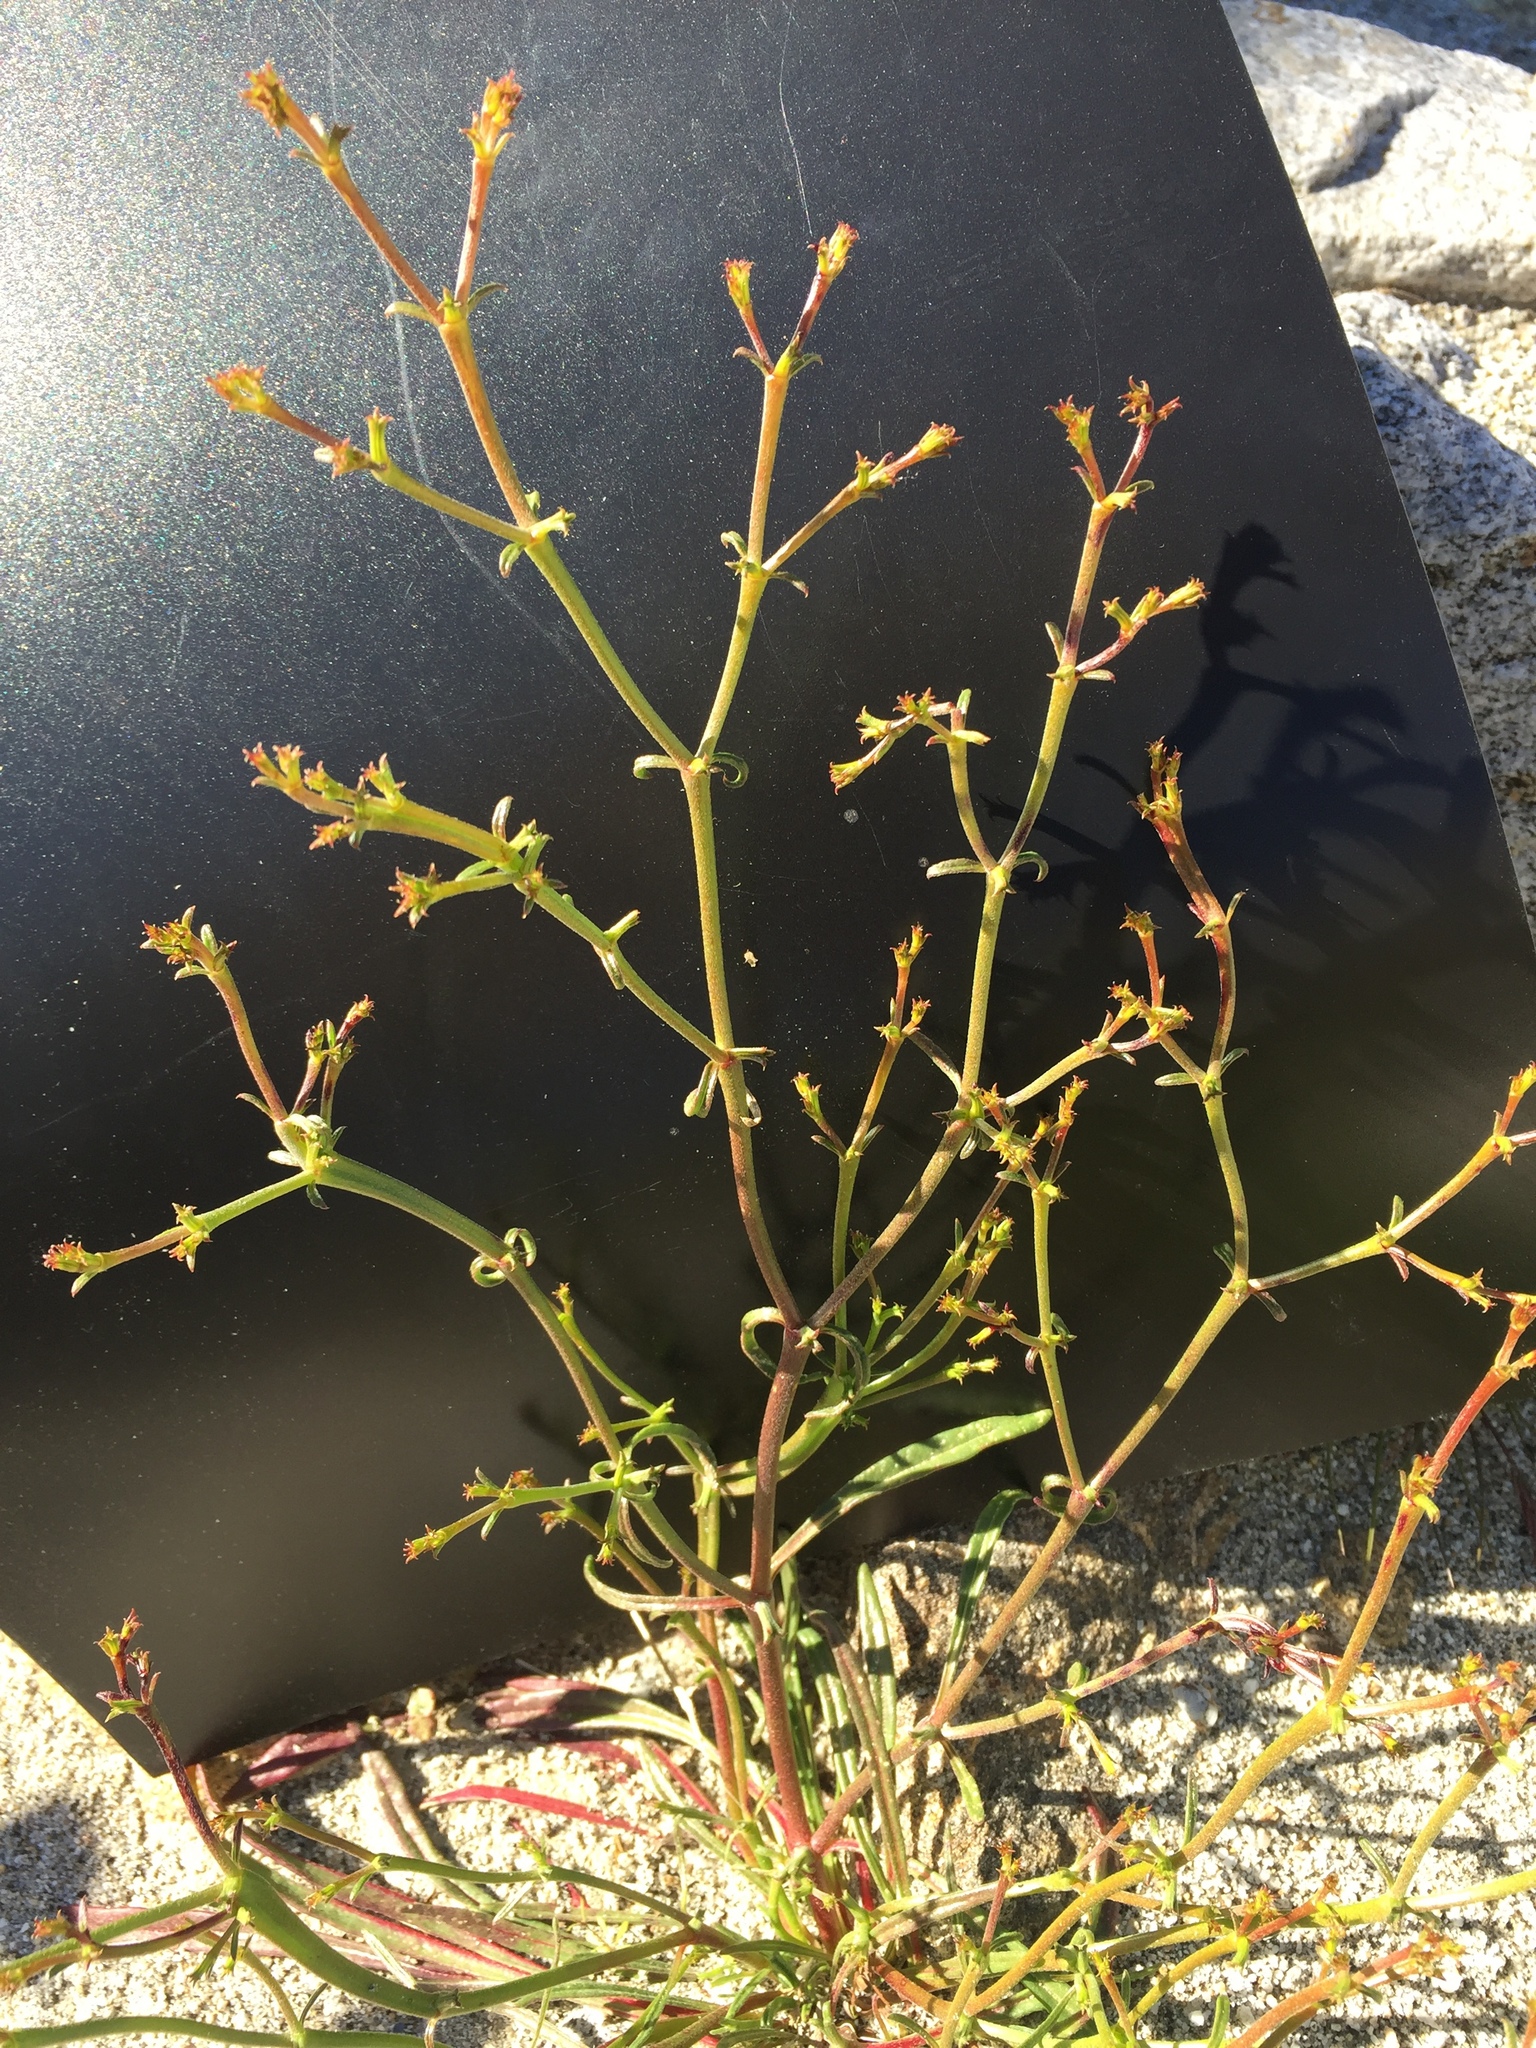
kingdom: Plantae
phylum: Tracheophyta
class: Magnoliopsida
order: Caryophyllales
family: Polygonaceae
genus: Chorizanthe
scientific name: Chorizanthe brevicornu
